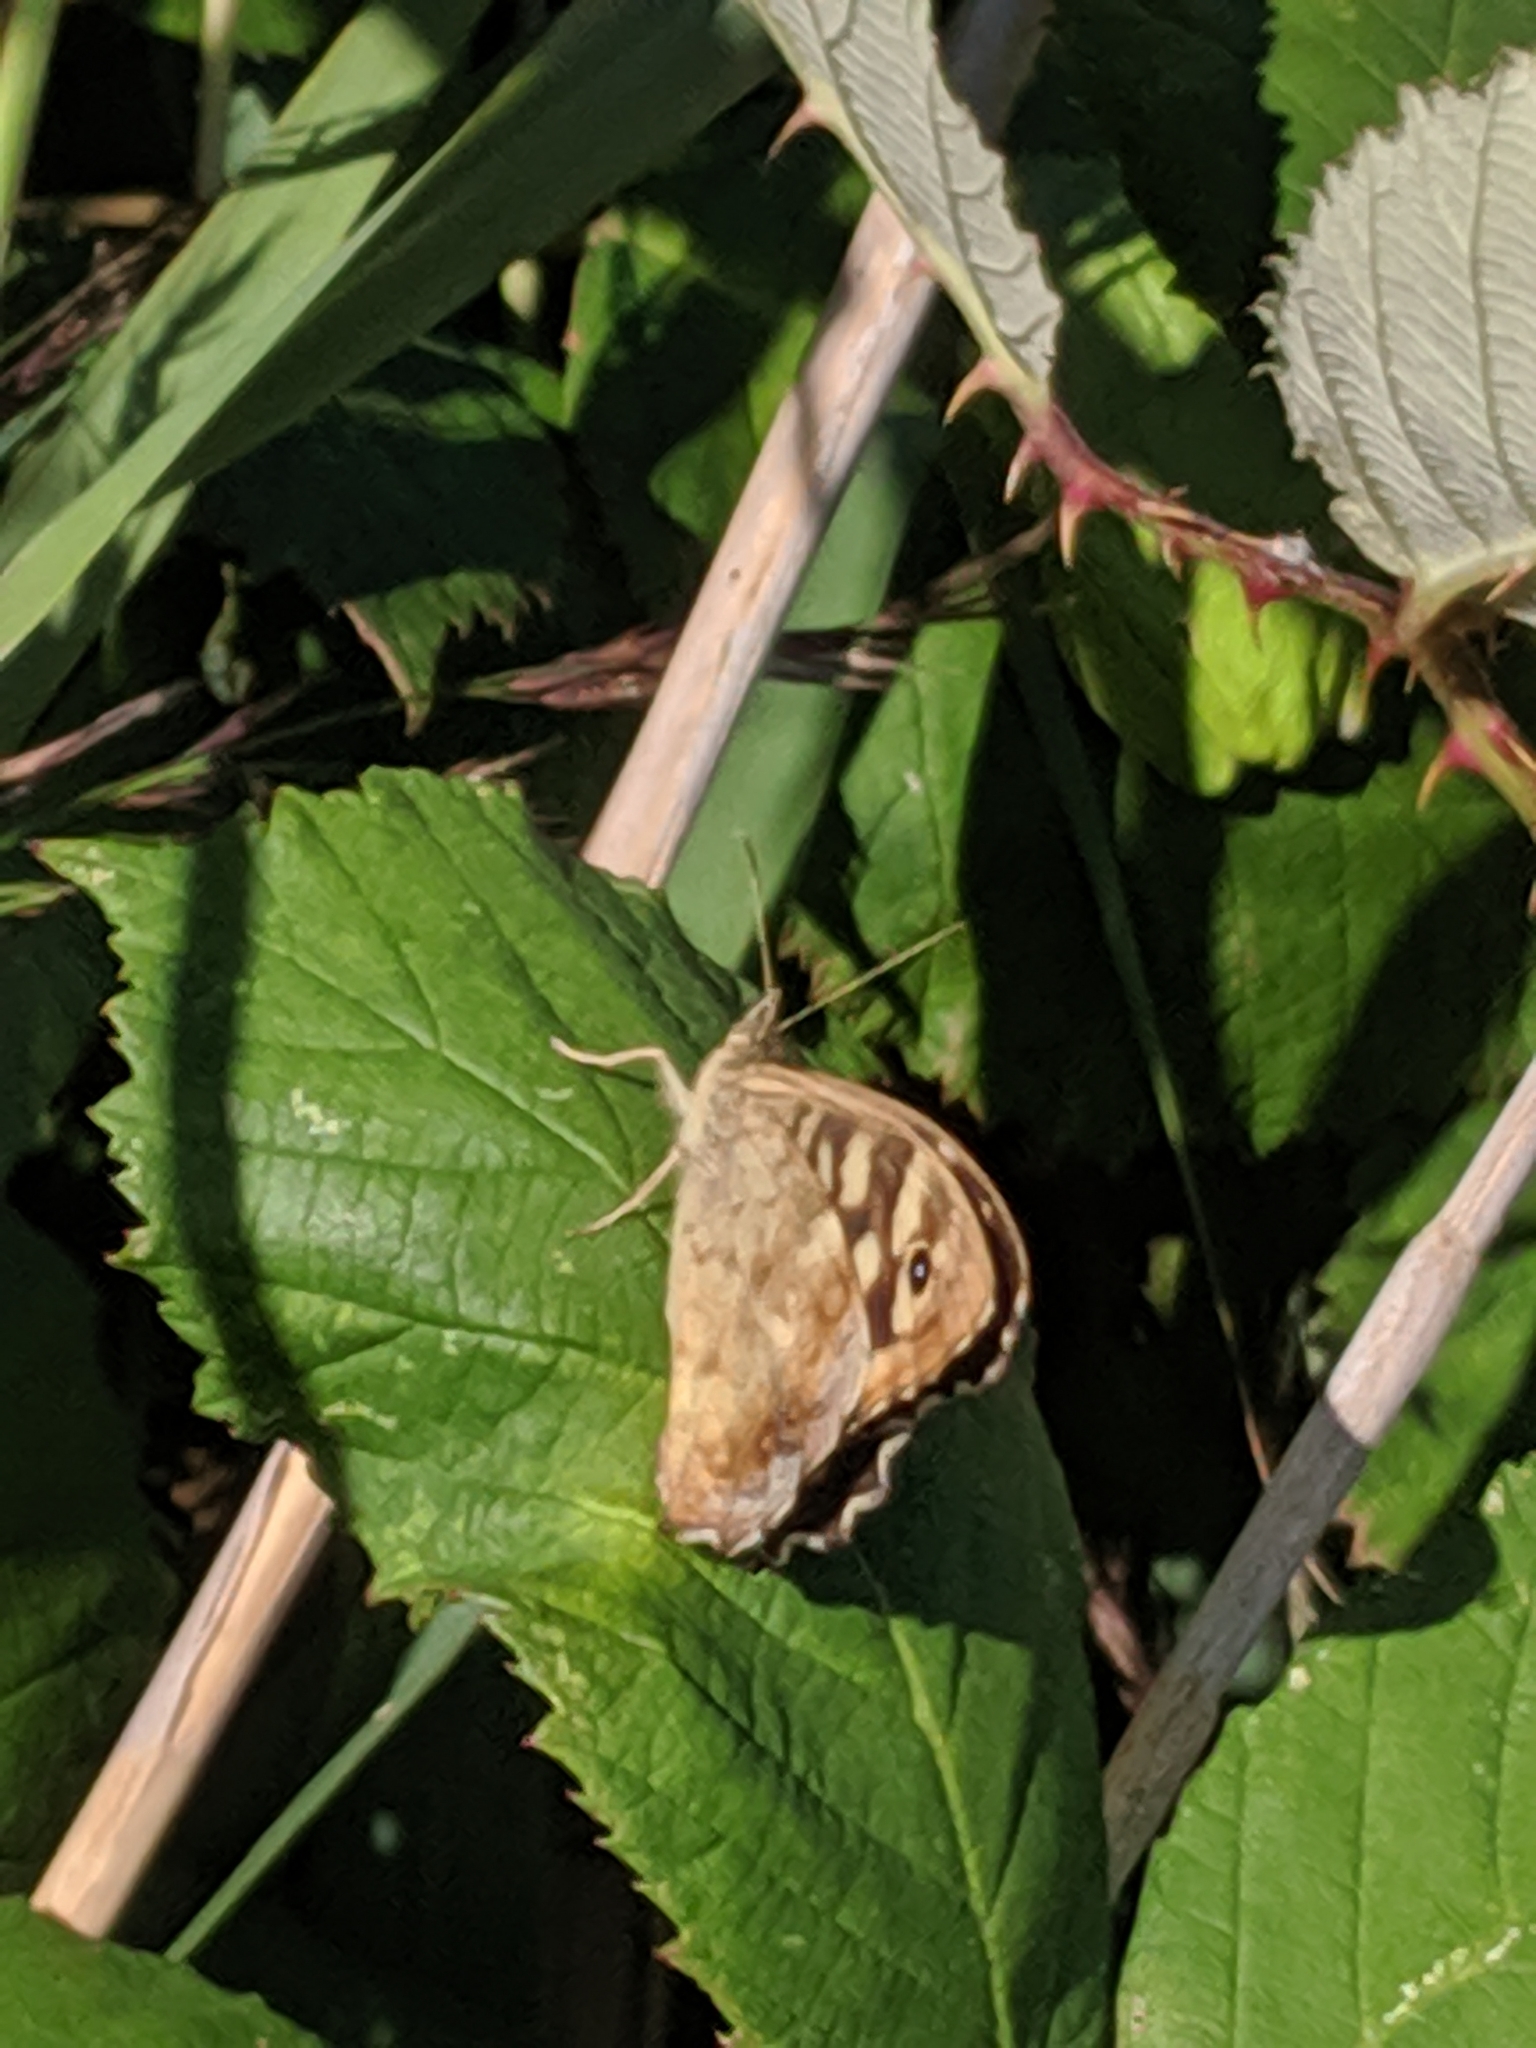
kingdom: Animalia
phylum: Arthropoda
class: Insecta
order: Lepidoptera
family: Nymphalidae
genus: Pararge
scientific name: Pararge aegeria
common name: Speckled wood
